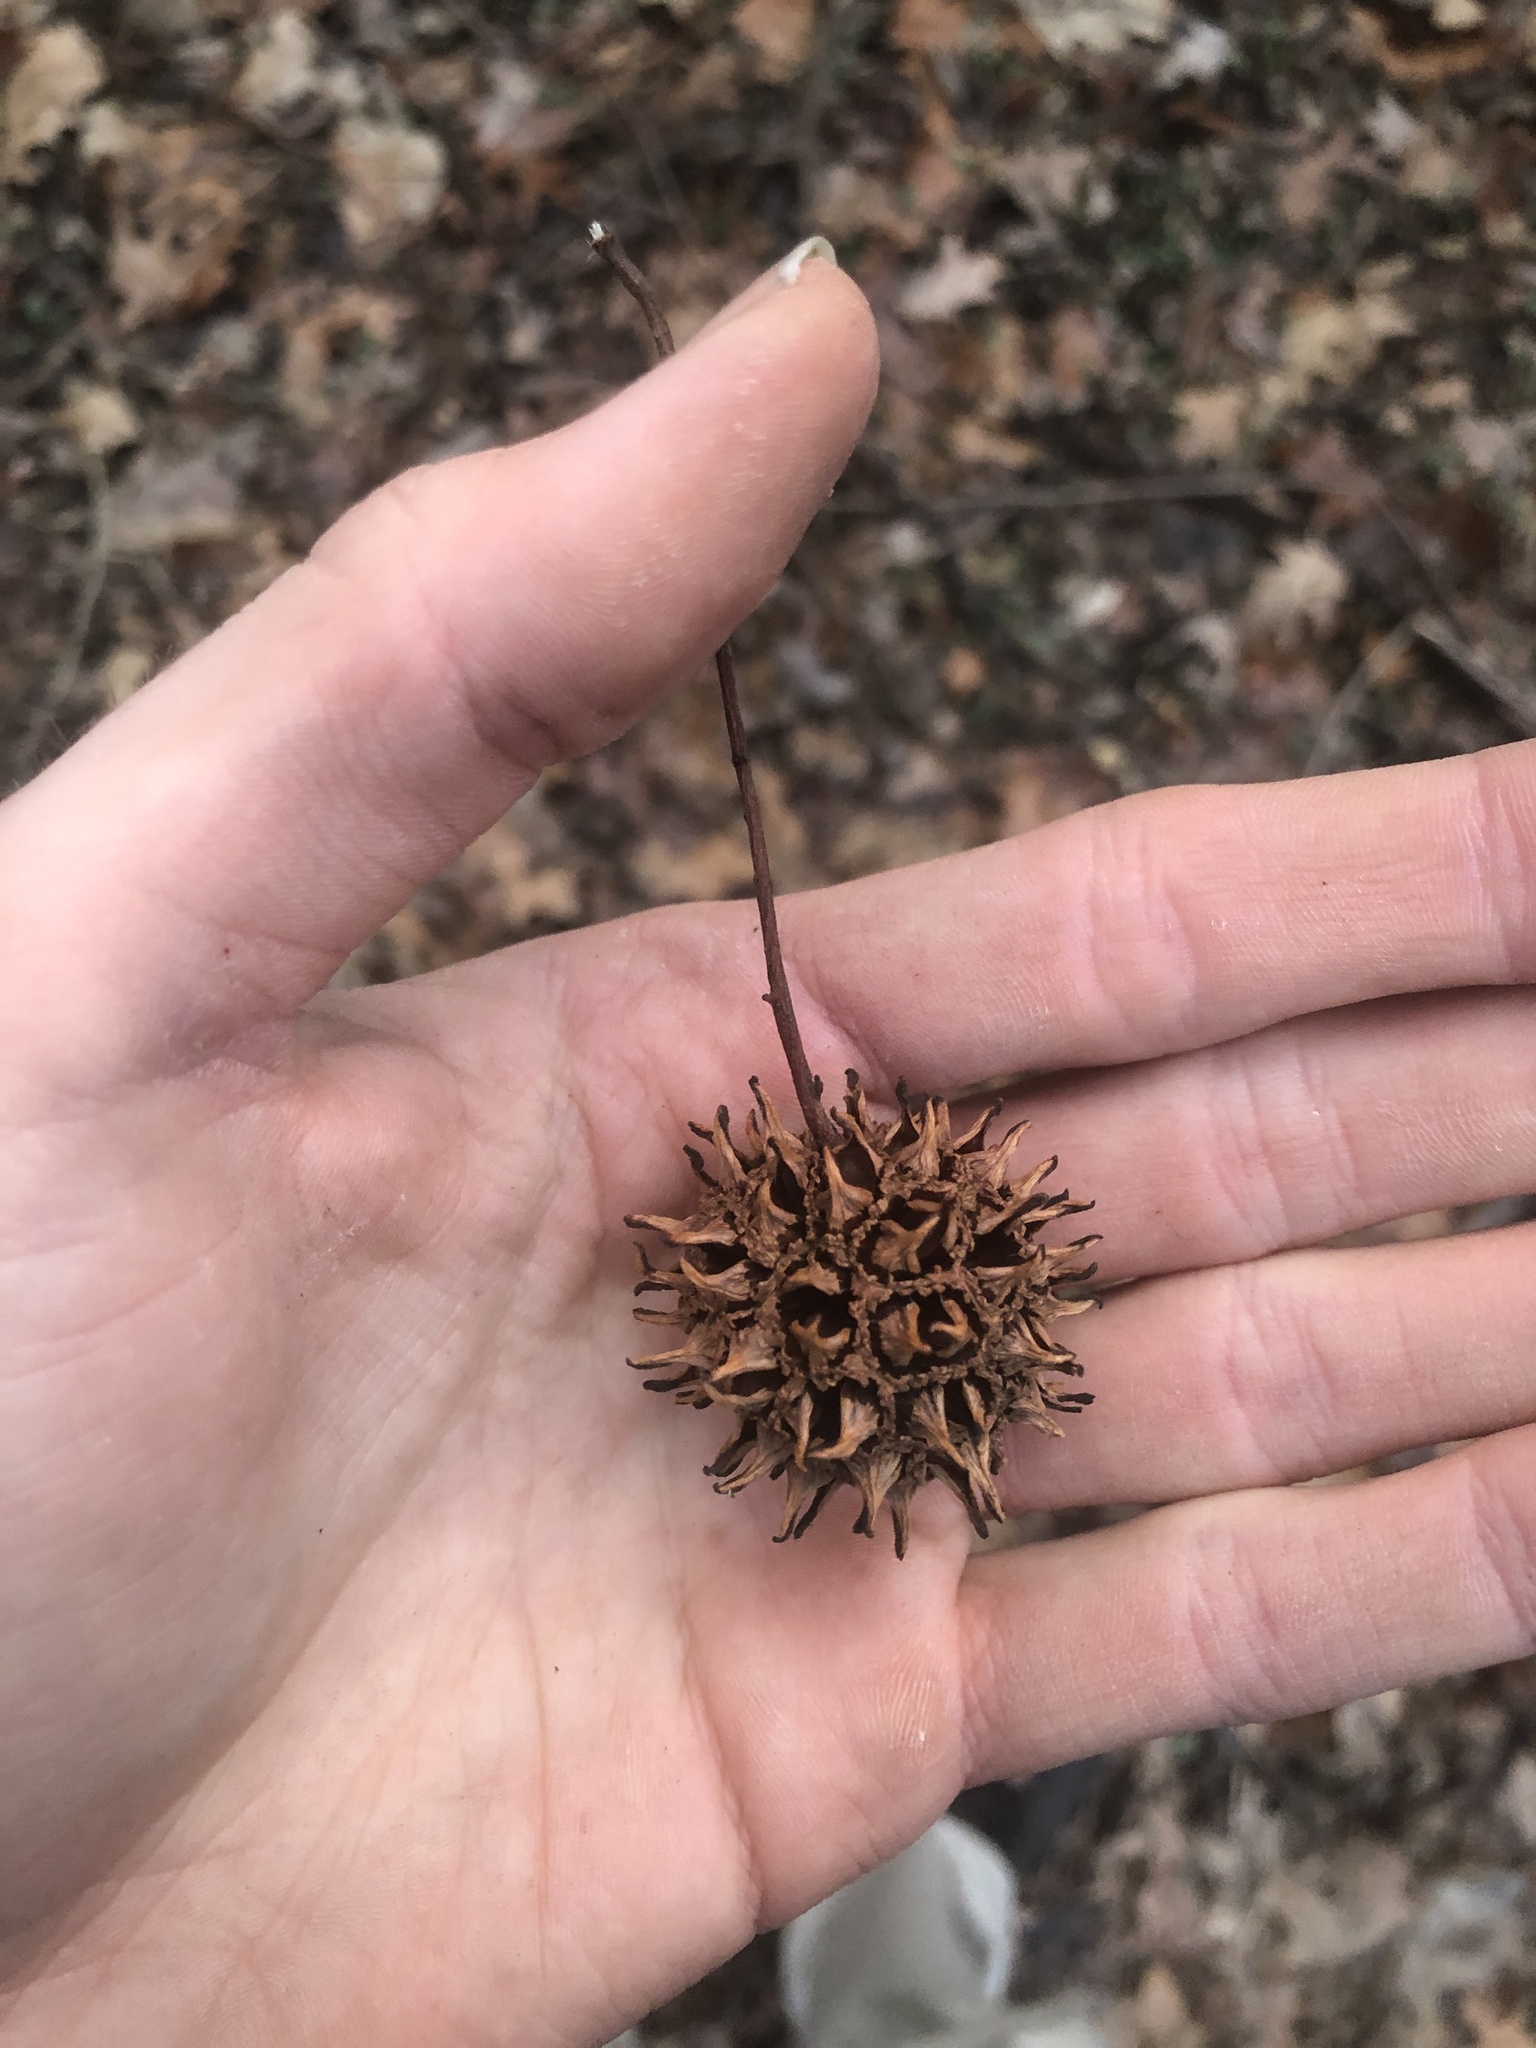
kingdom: Plantae
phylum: Tracheophyta
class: Magnoliopsida
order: Saxifragales
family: Altingiaceae
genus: Liquidambar
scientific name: Liquidambar styraciflua
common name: Sweet gum
